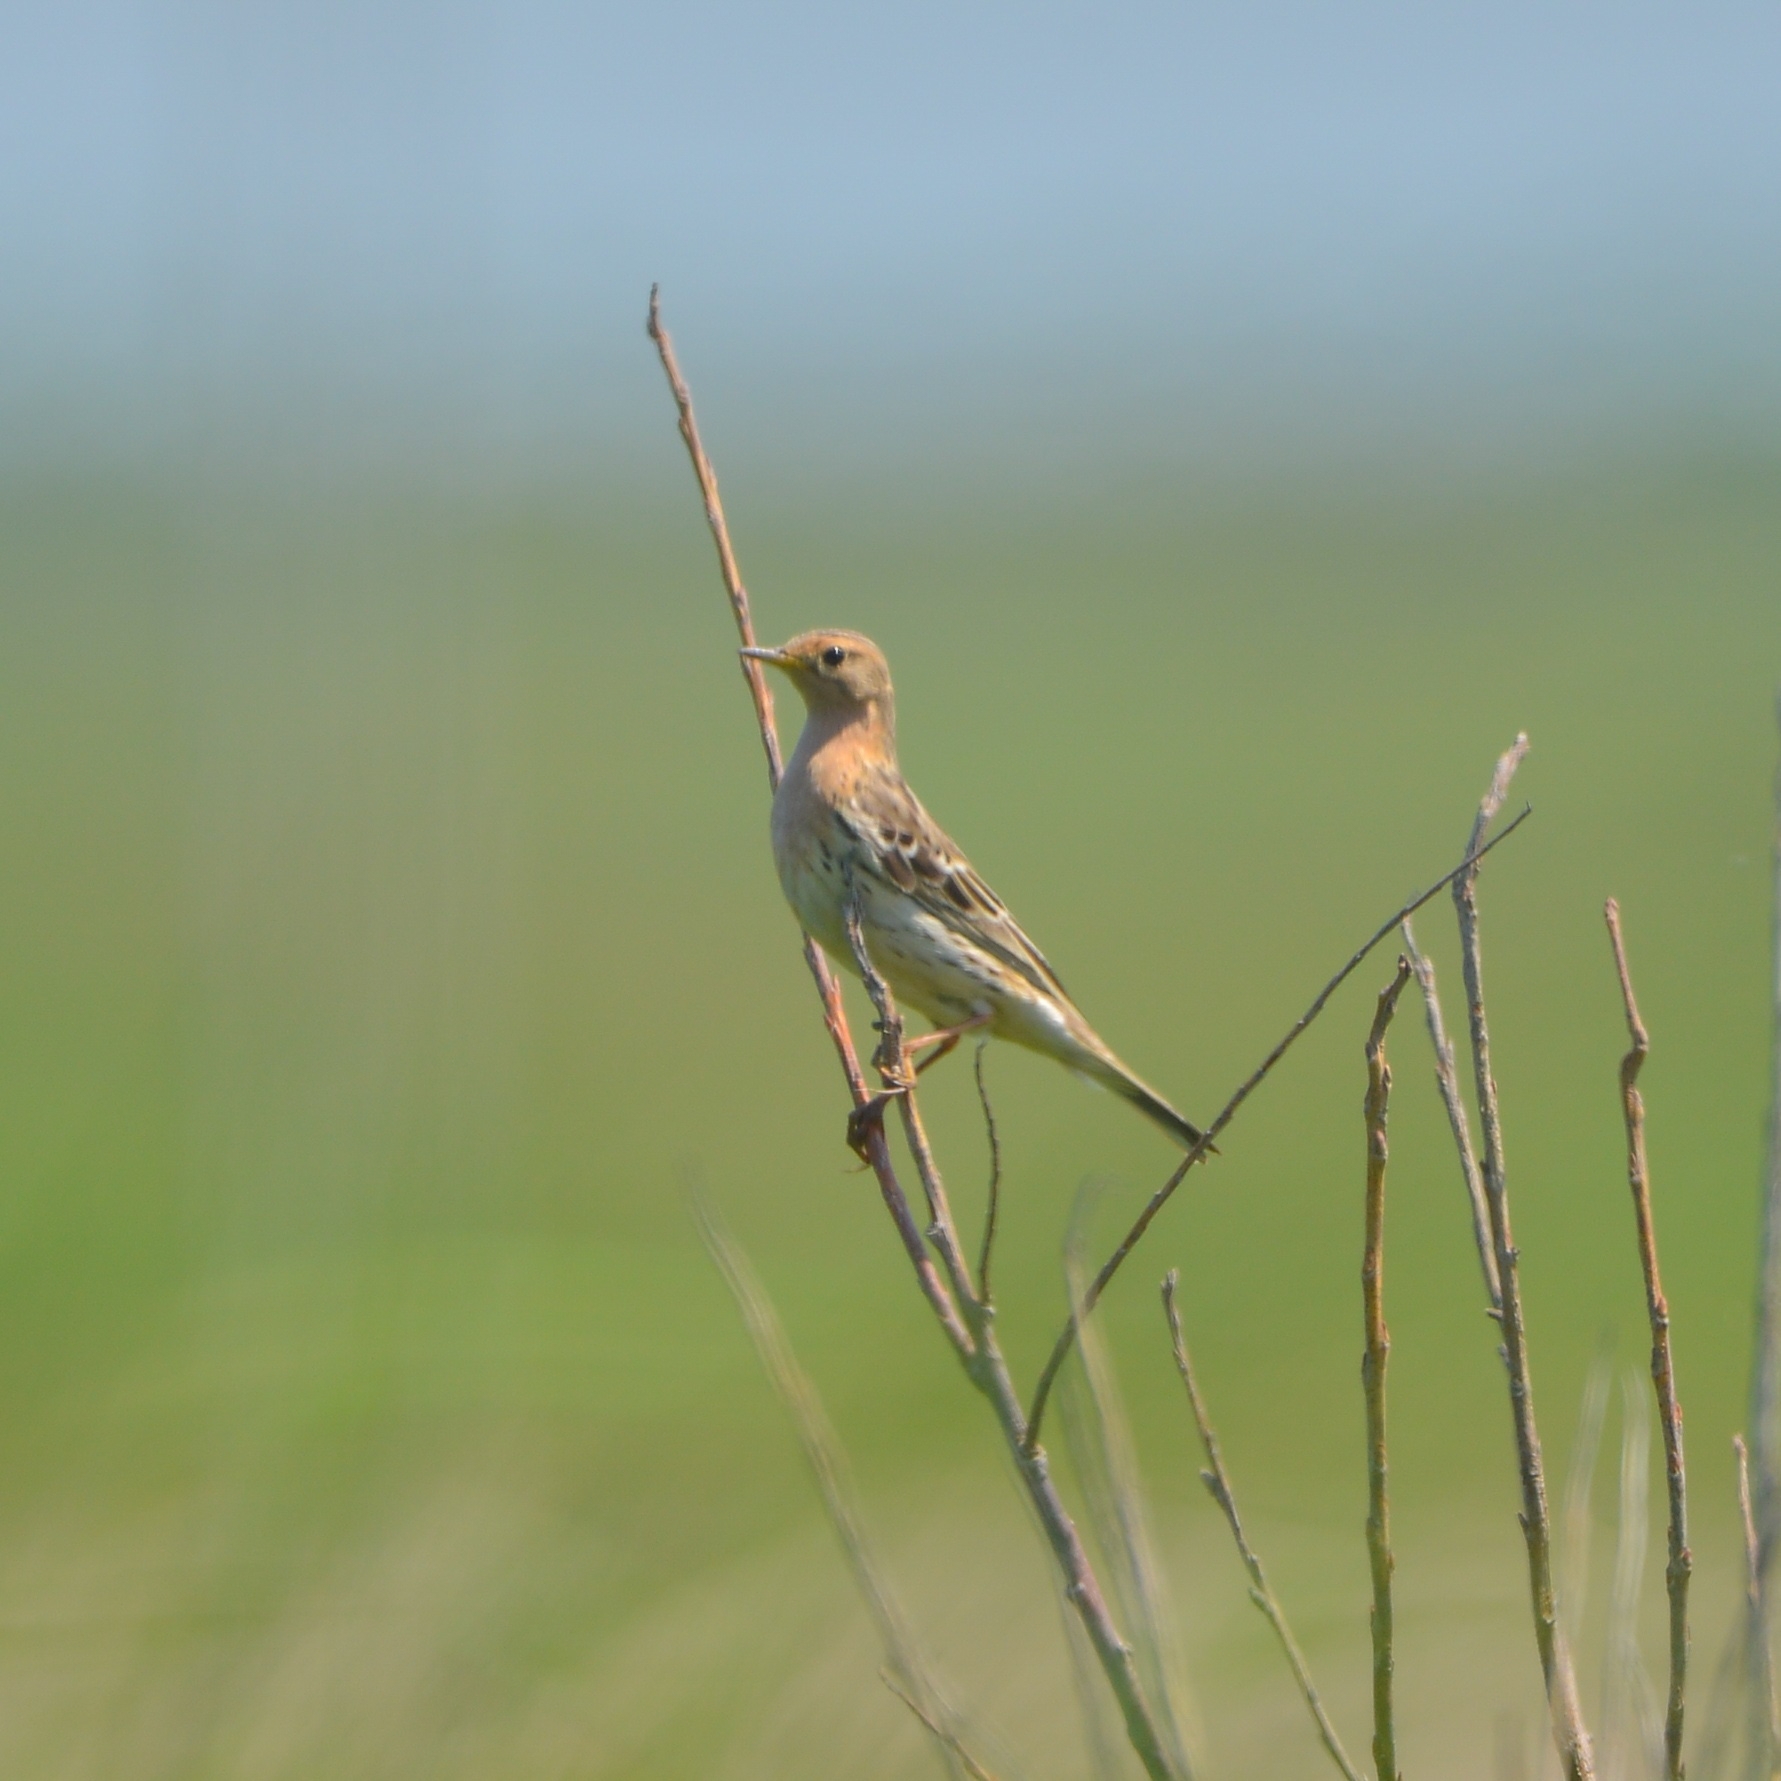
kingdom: Animalia
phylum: Chordata
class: Aves
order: Passeriformes
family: Motacillidae
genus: Anthus
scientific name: Anthus cervinus
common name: Red-throated pipit
